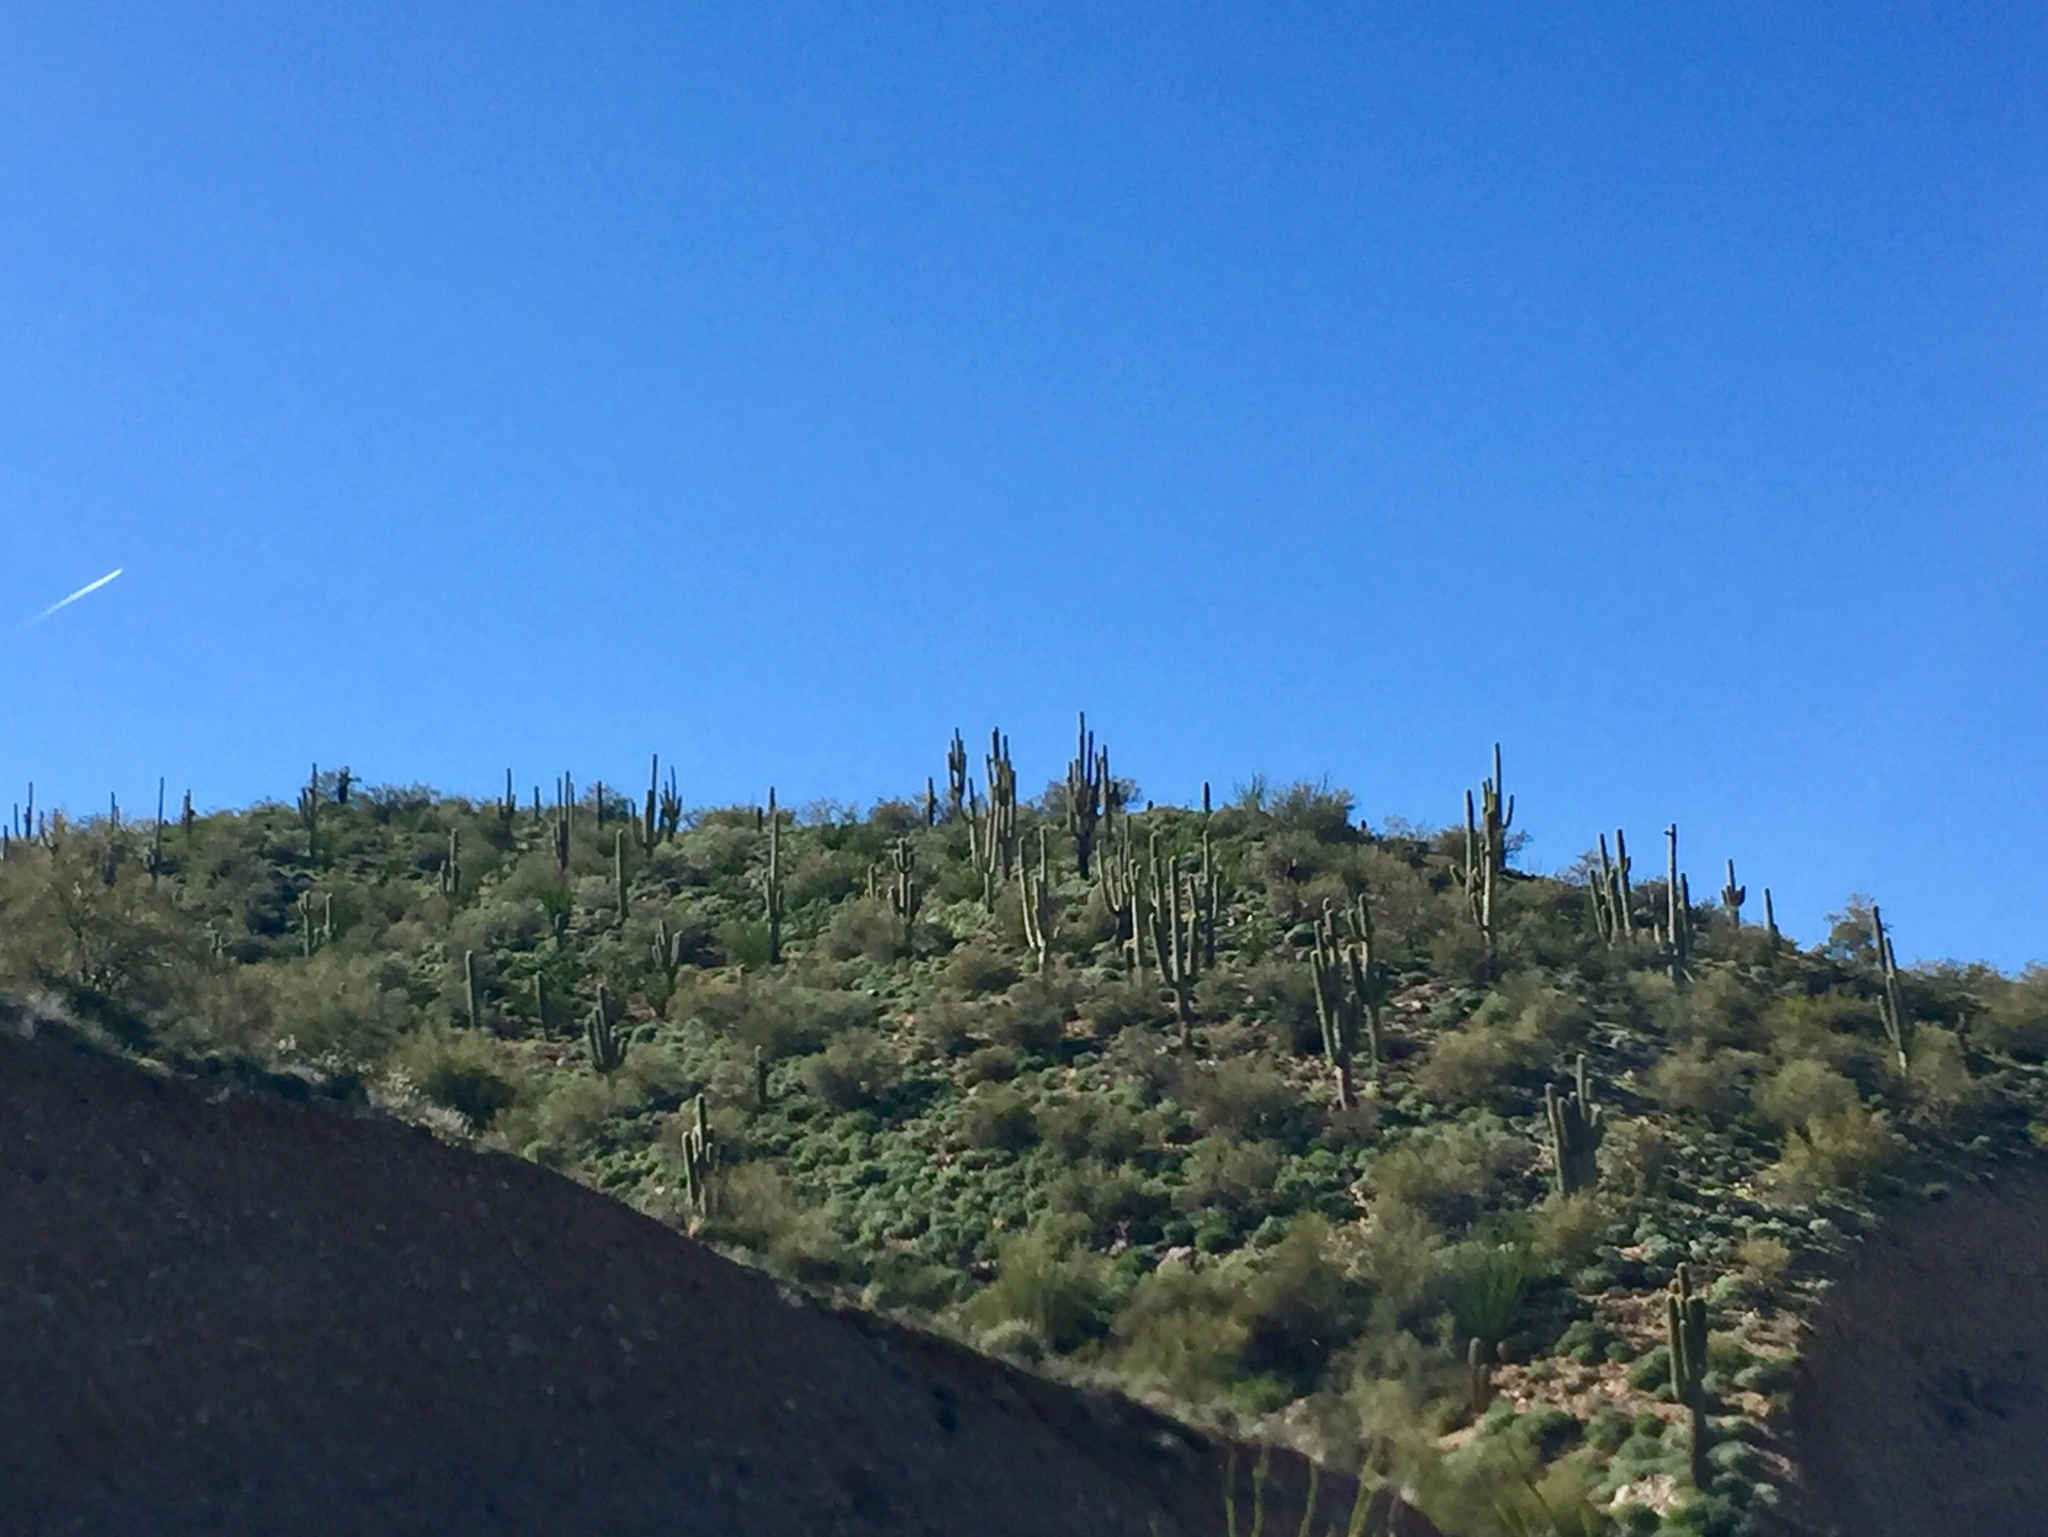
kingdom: Plantae
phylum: Tracheophyta
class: Magnoliopsida
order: Caryophyllales
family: Cactaceae
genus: Carnegiea
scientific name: Carnegiea gigantea
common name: Saguaro
